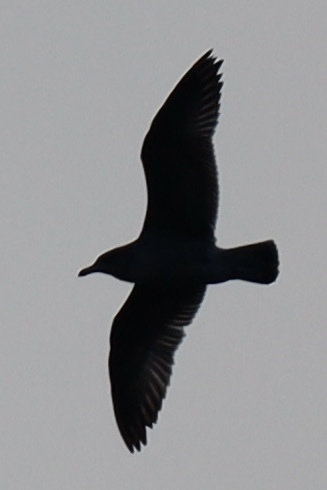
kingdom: Animalia
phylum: Chordata
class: Aves
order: Charadriiformes
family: Laridae
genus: Larus
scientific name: Larus
